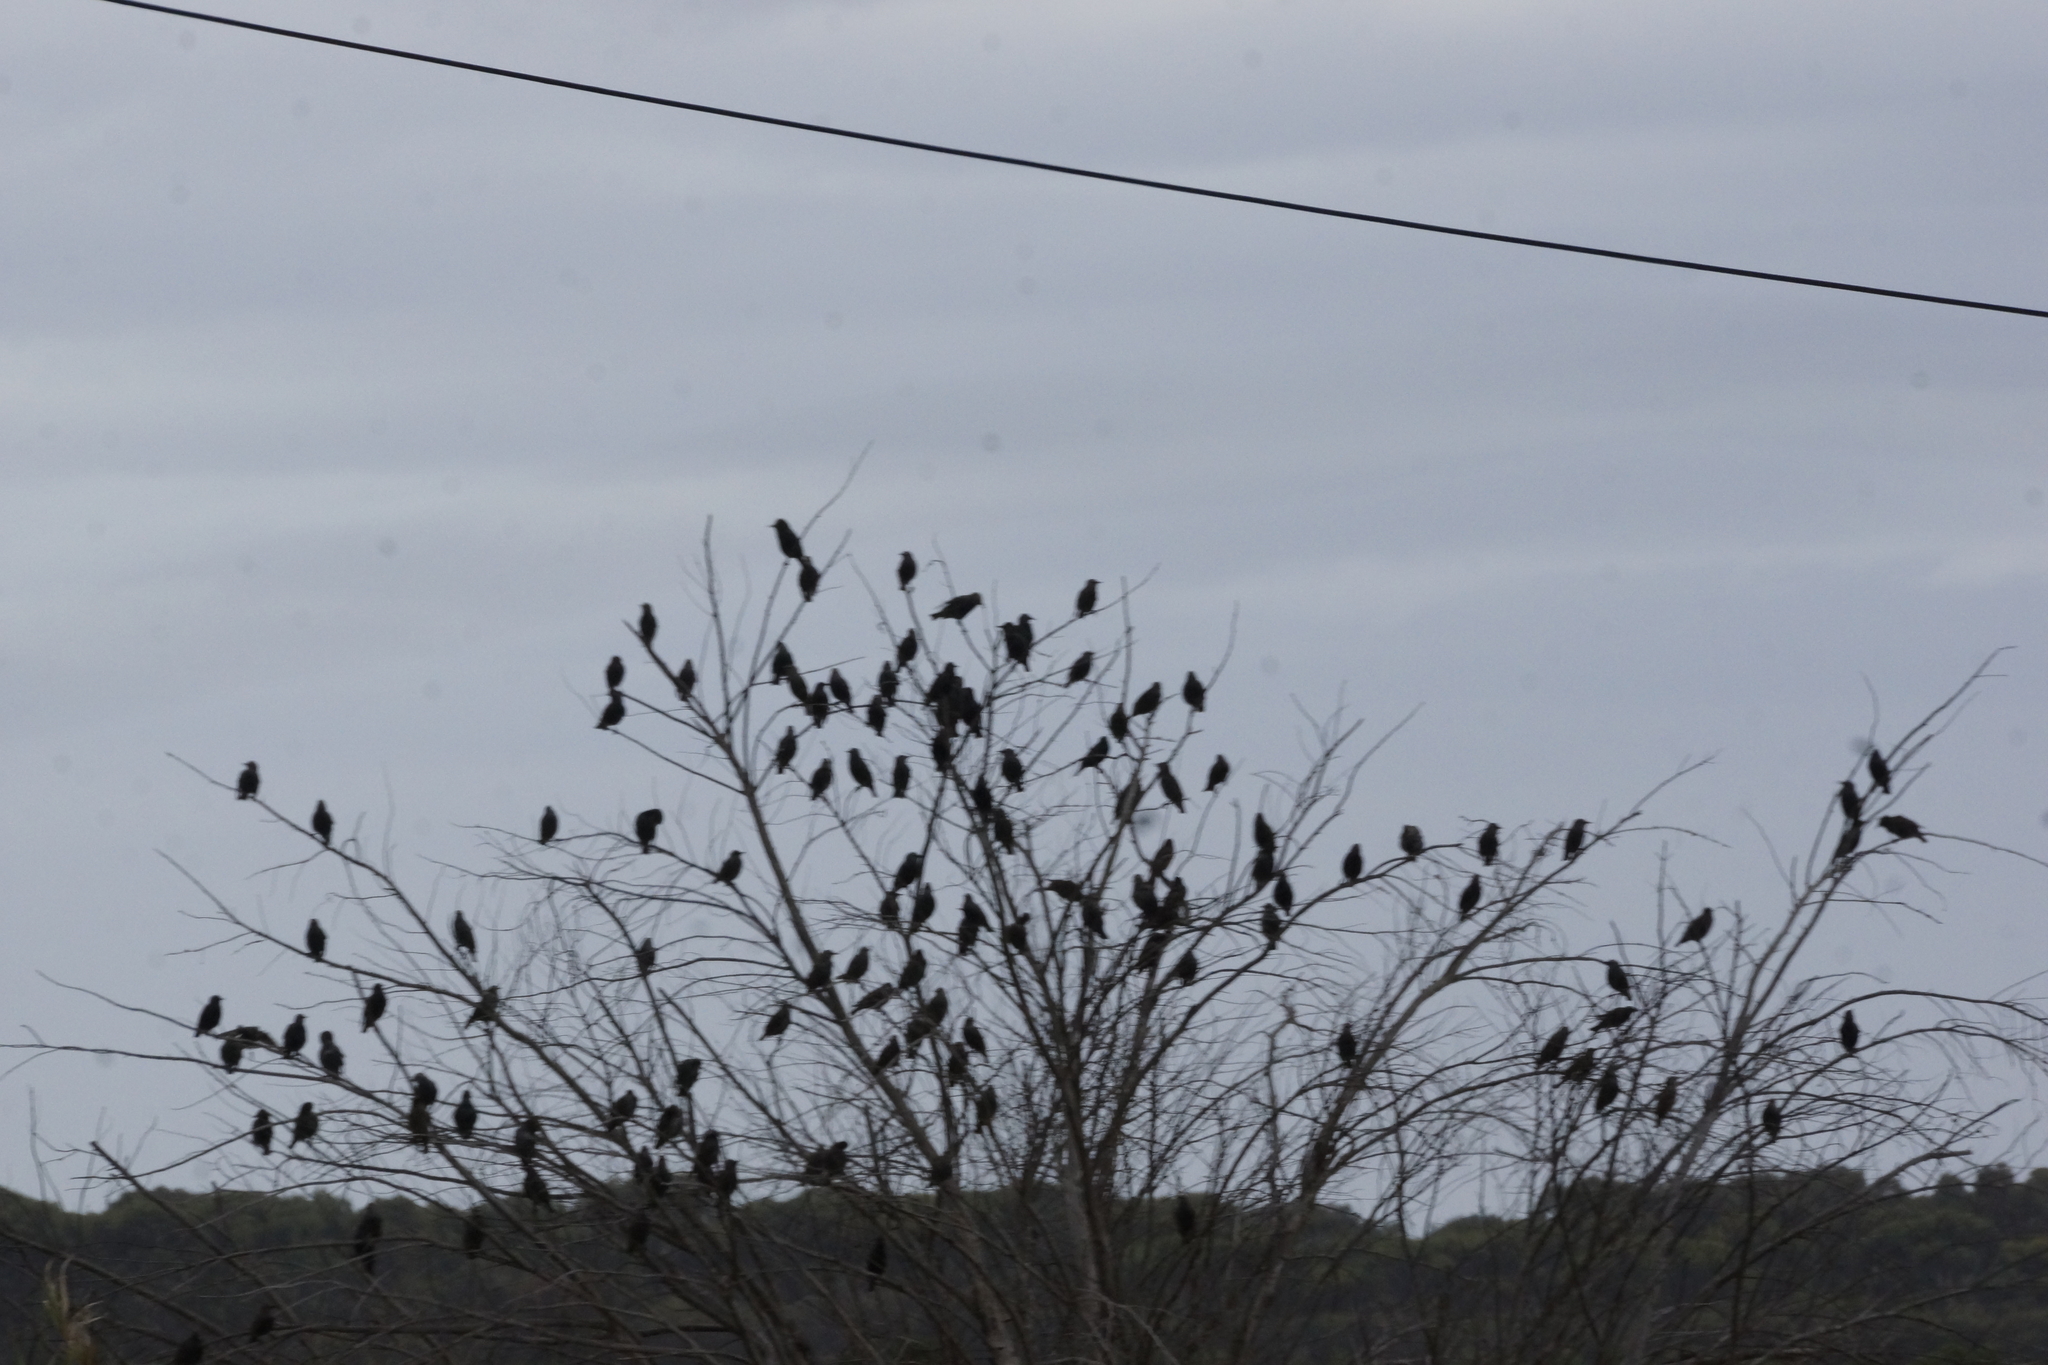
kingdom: Animalia
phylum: Chordata
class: Aves
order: Passeriformes
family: Sturnidae
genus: Sturnus
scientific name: Sturnus vulgaris
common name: Common starling
